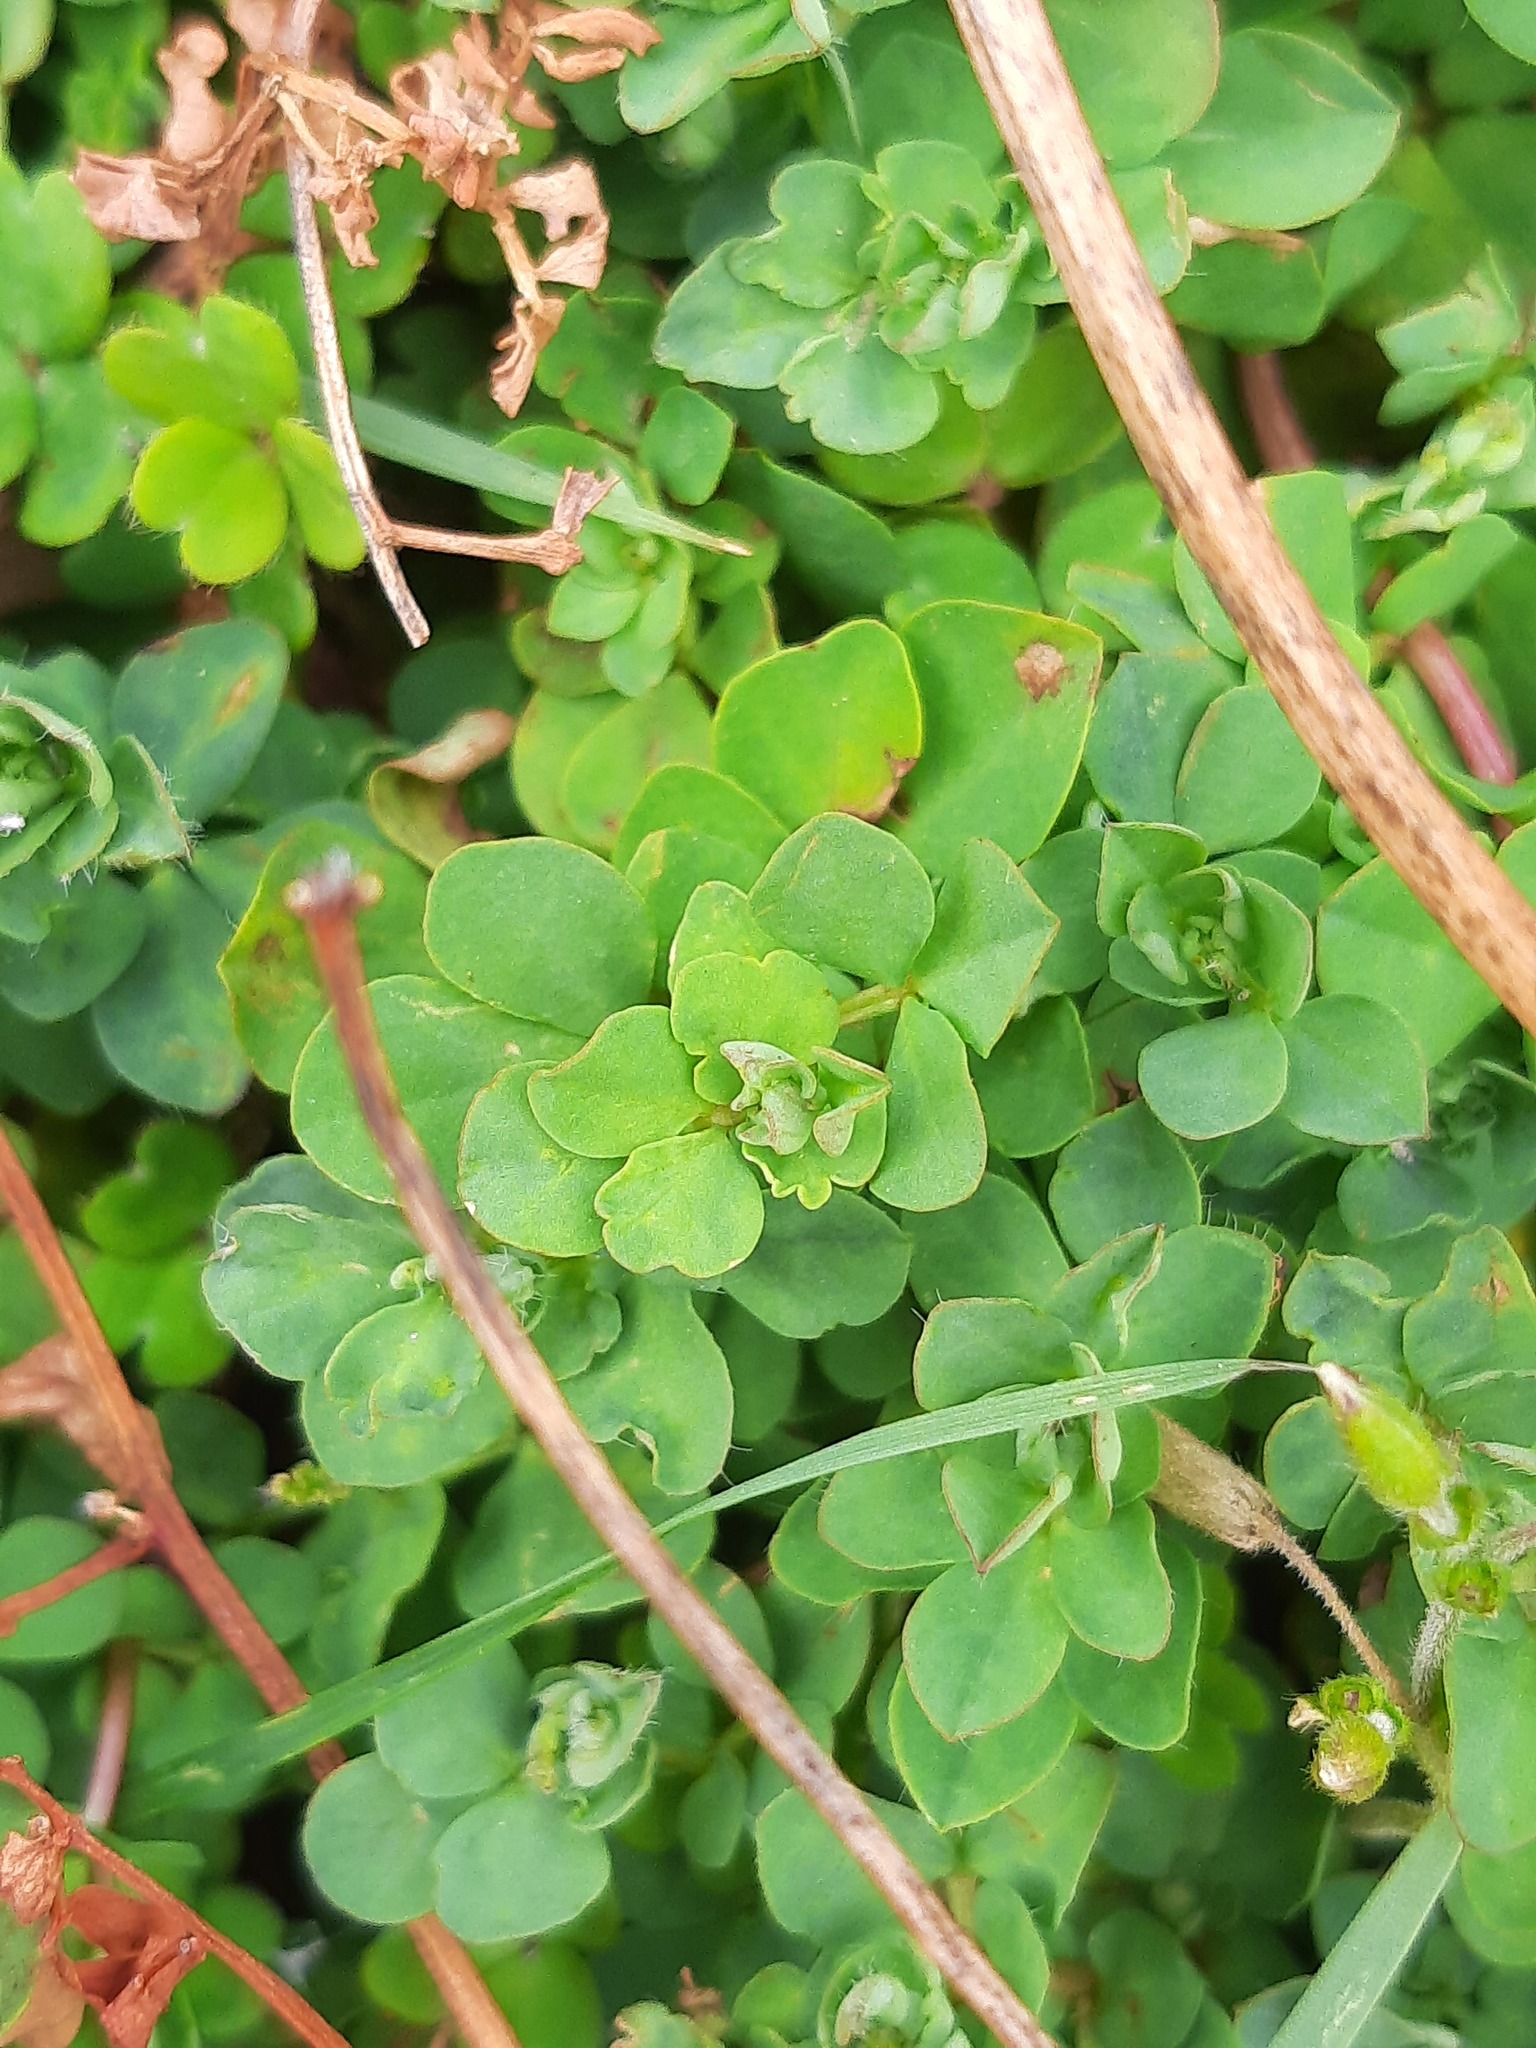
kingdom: Plantae
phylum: Tracheophyta
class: Magnoliopsida
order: Fabales
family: Fabaceae
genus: Lotus
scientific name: Lotus pedunculatus
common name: Greater birdsfoot-trefoil
